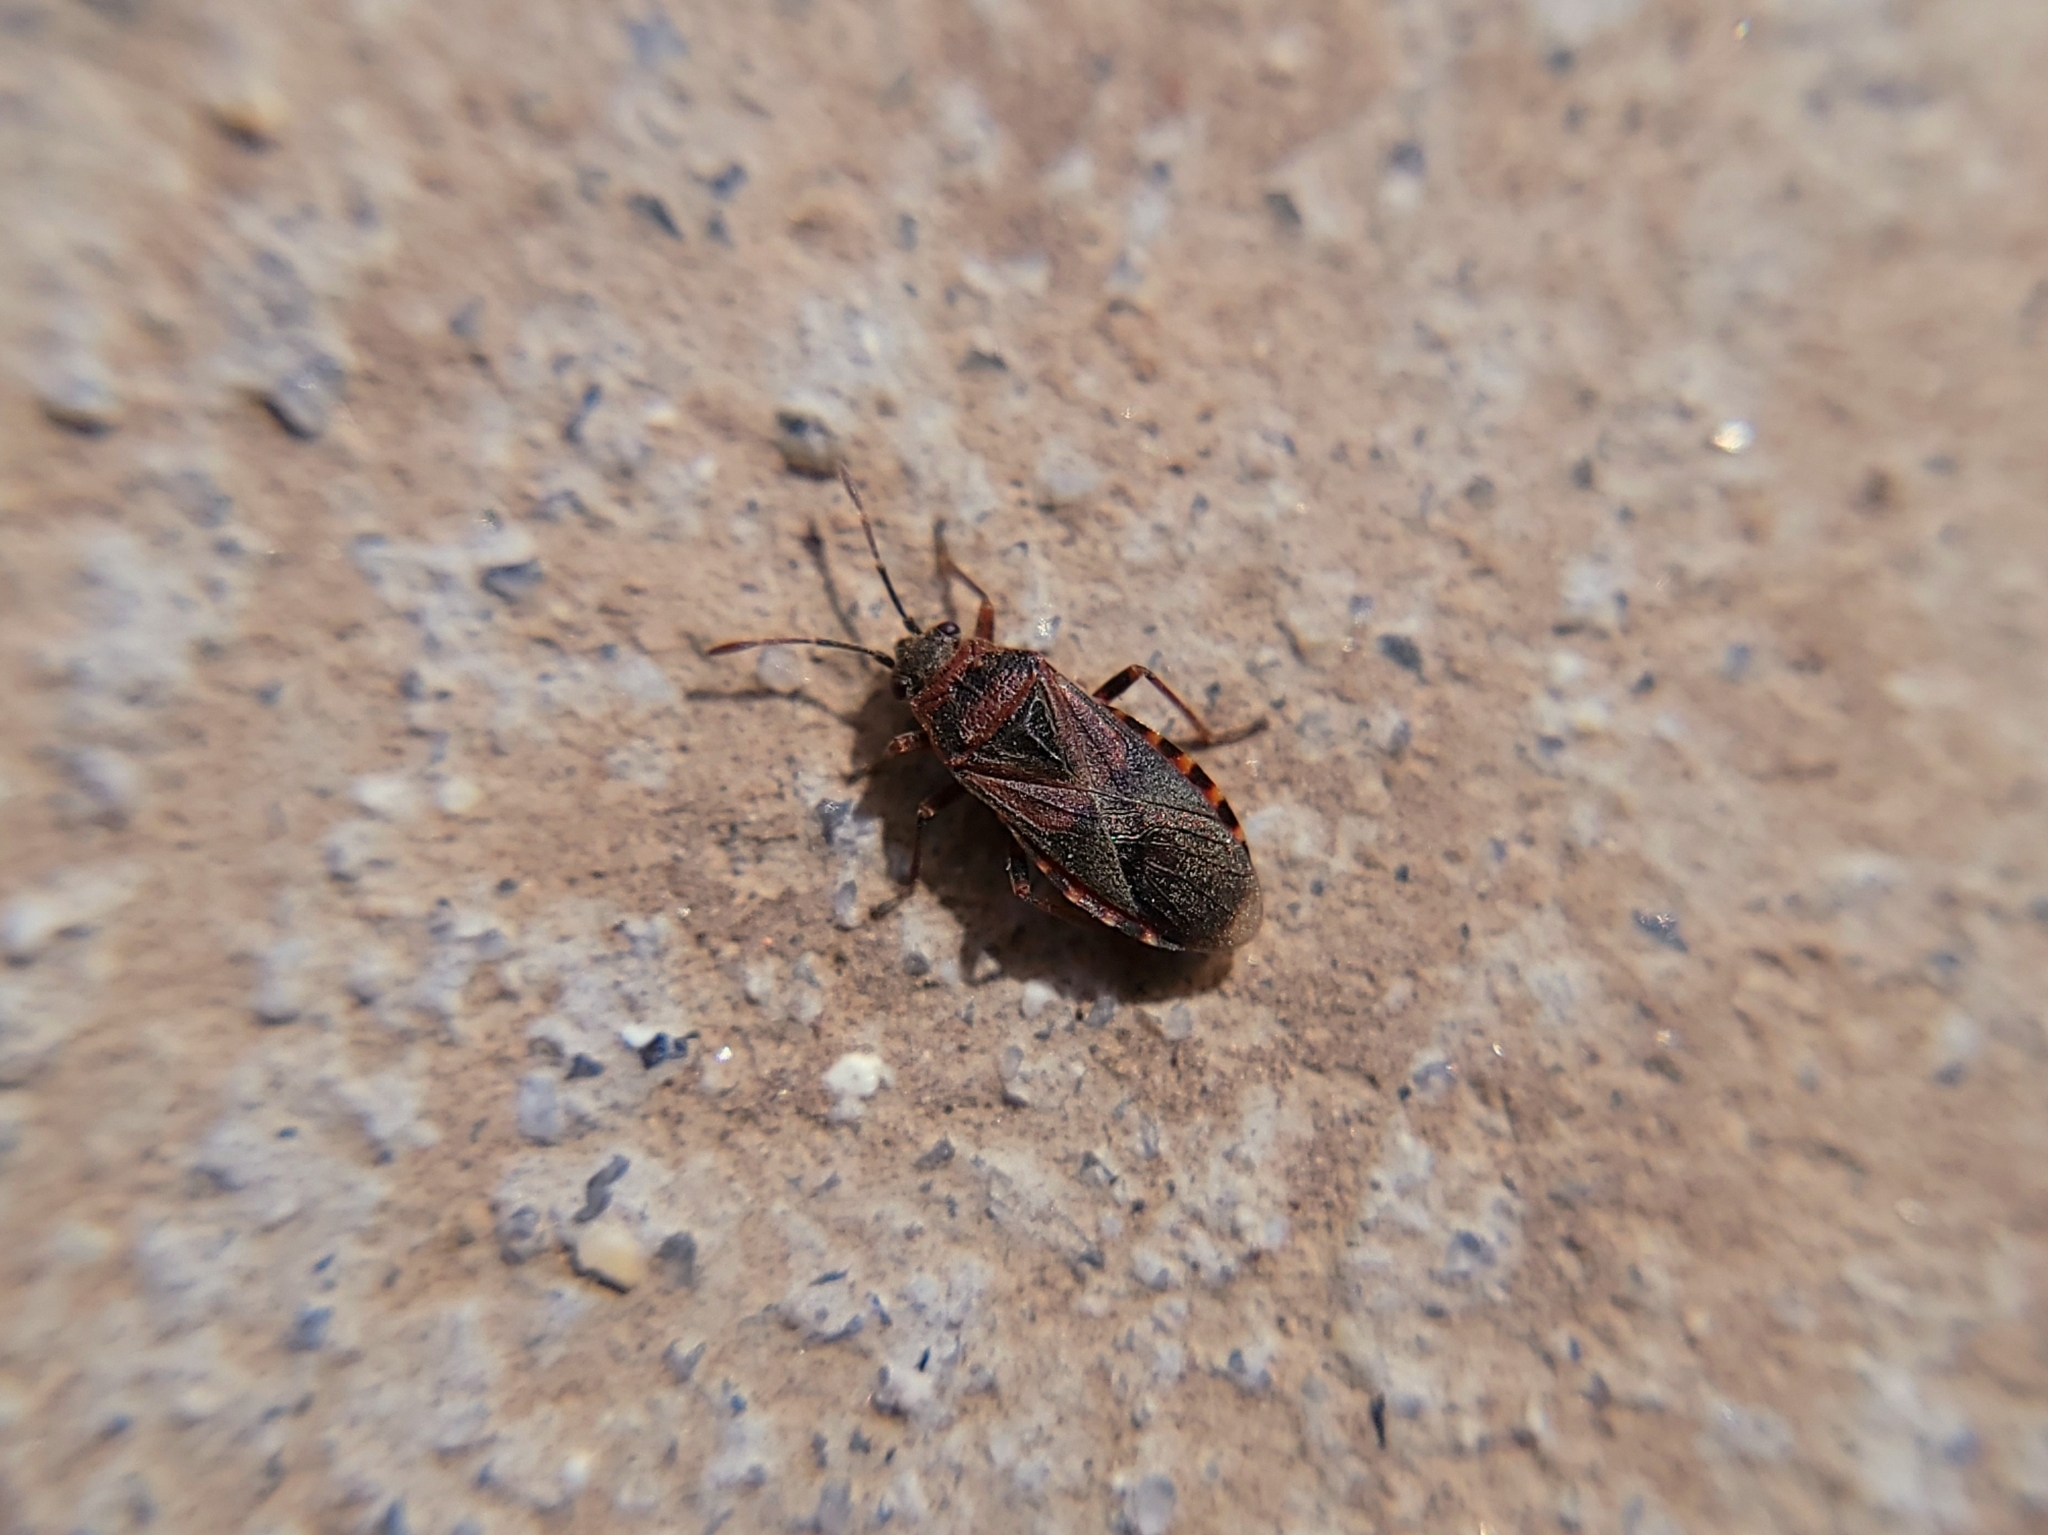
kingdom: Animalia
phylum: Arthropoda
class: Insecta
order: Hemiptera
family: Lygaeidae
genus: Arocatus
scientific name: Arocatus melanocephalus
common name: Lygaeid bug
